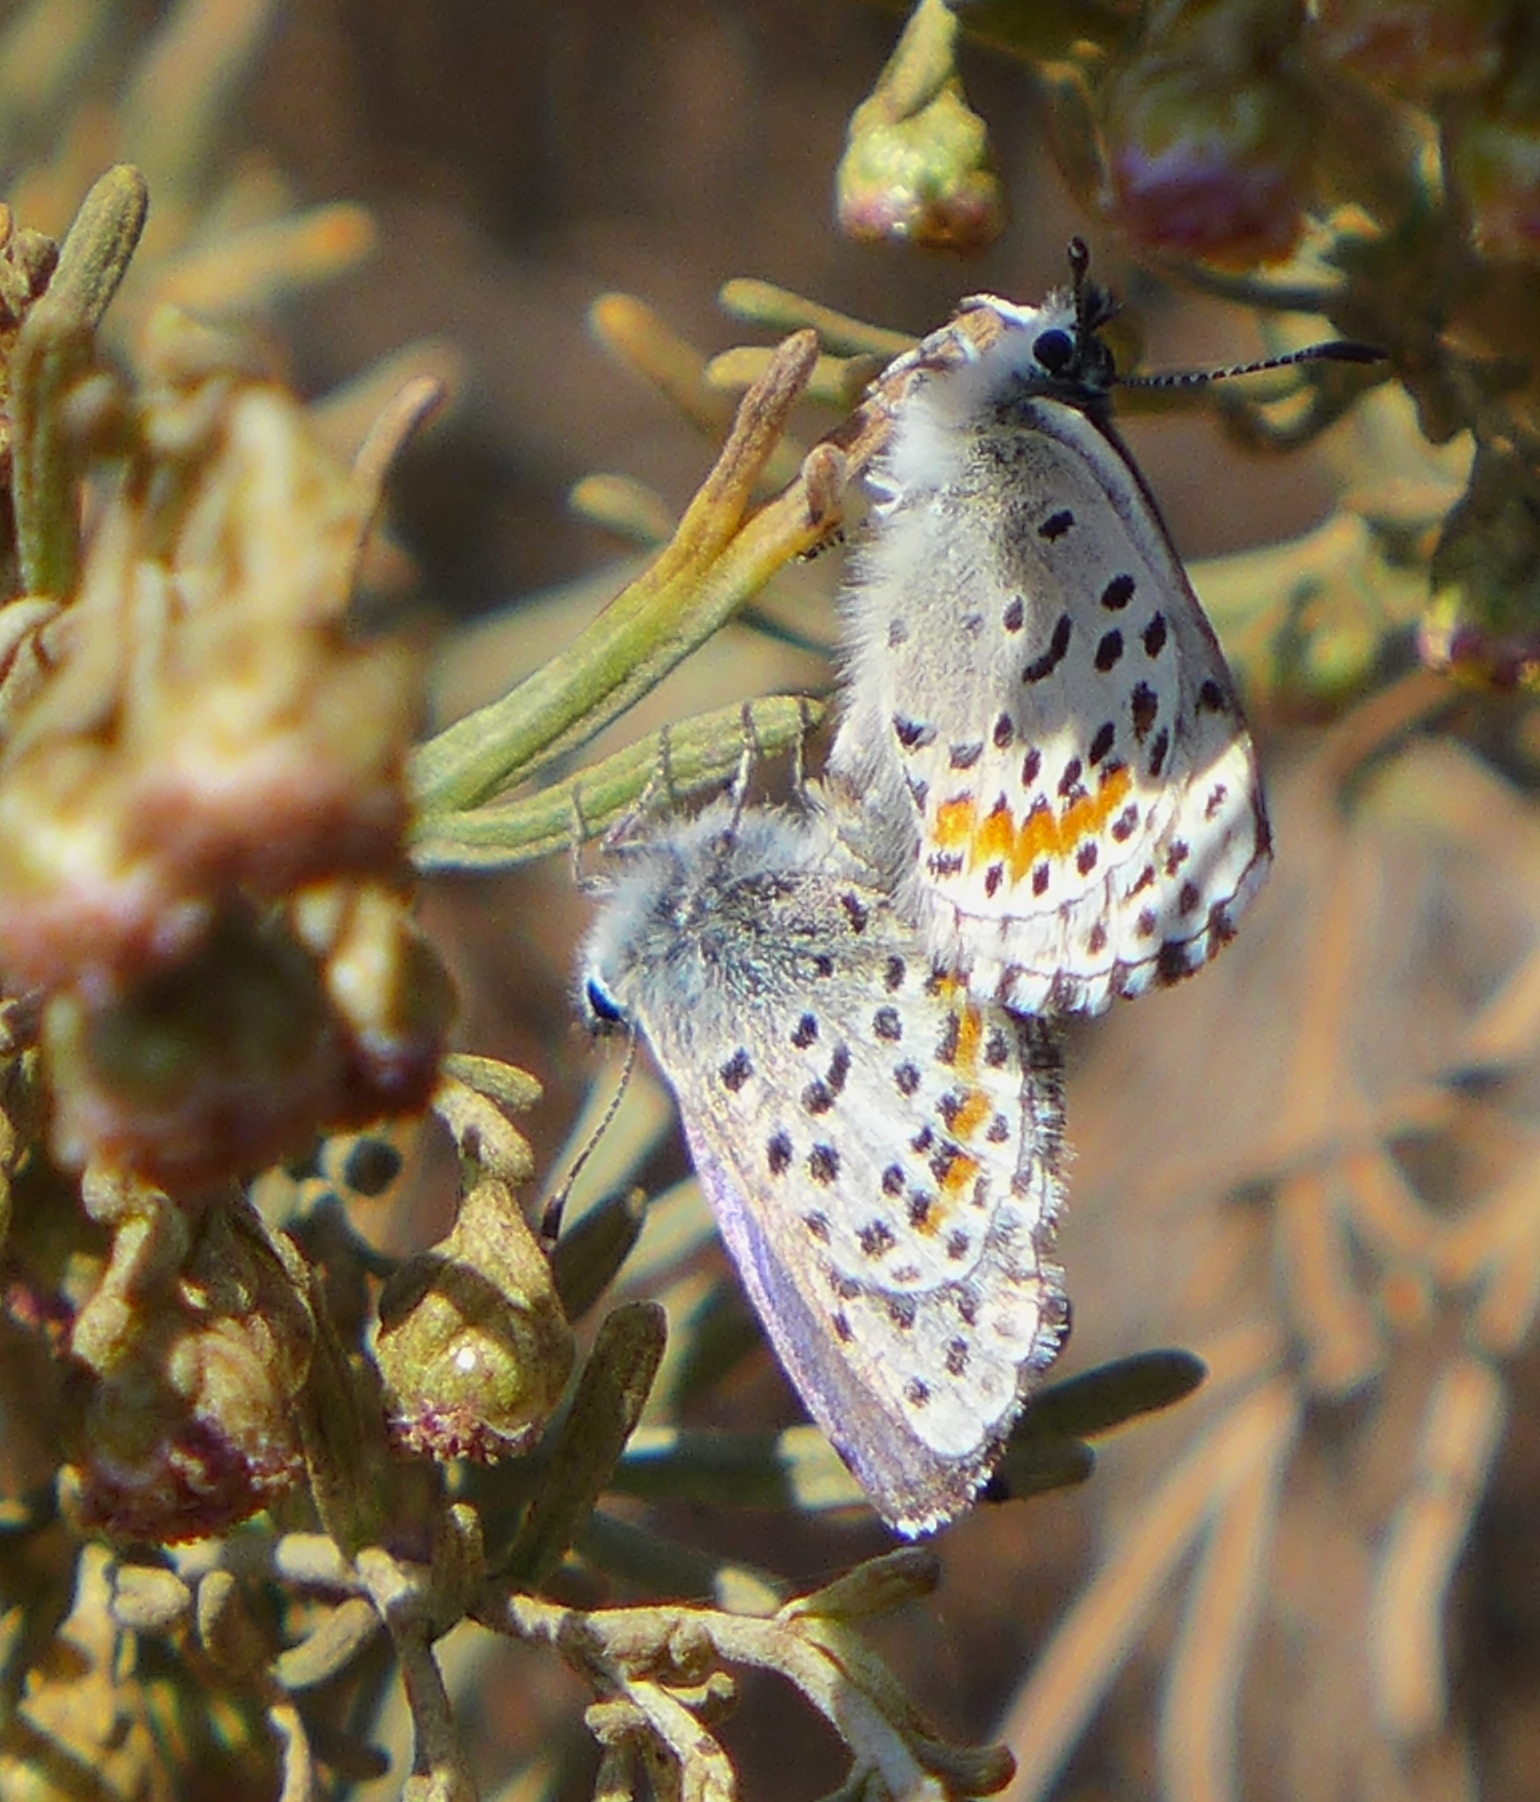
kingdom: Animalia
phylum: Arthropoda
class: Insecta
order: Lepidoptera
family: Lycaenidae
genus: Euphilotes
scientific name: Euphilotes enoptes
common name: Dotted blue
